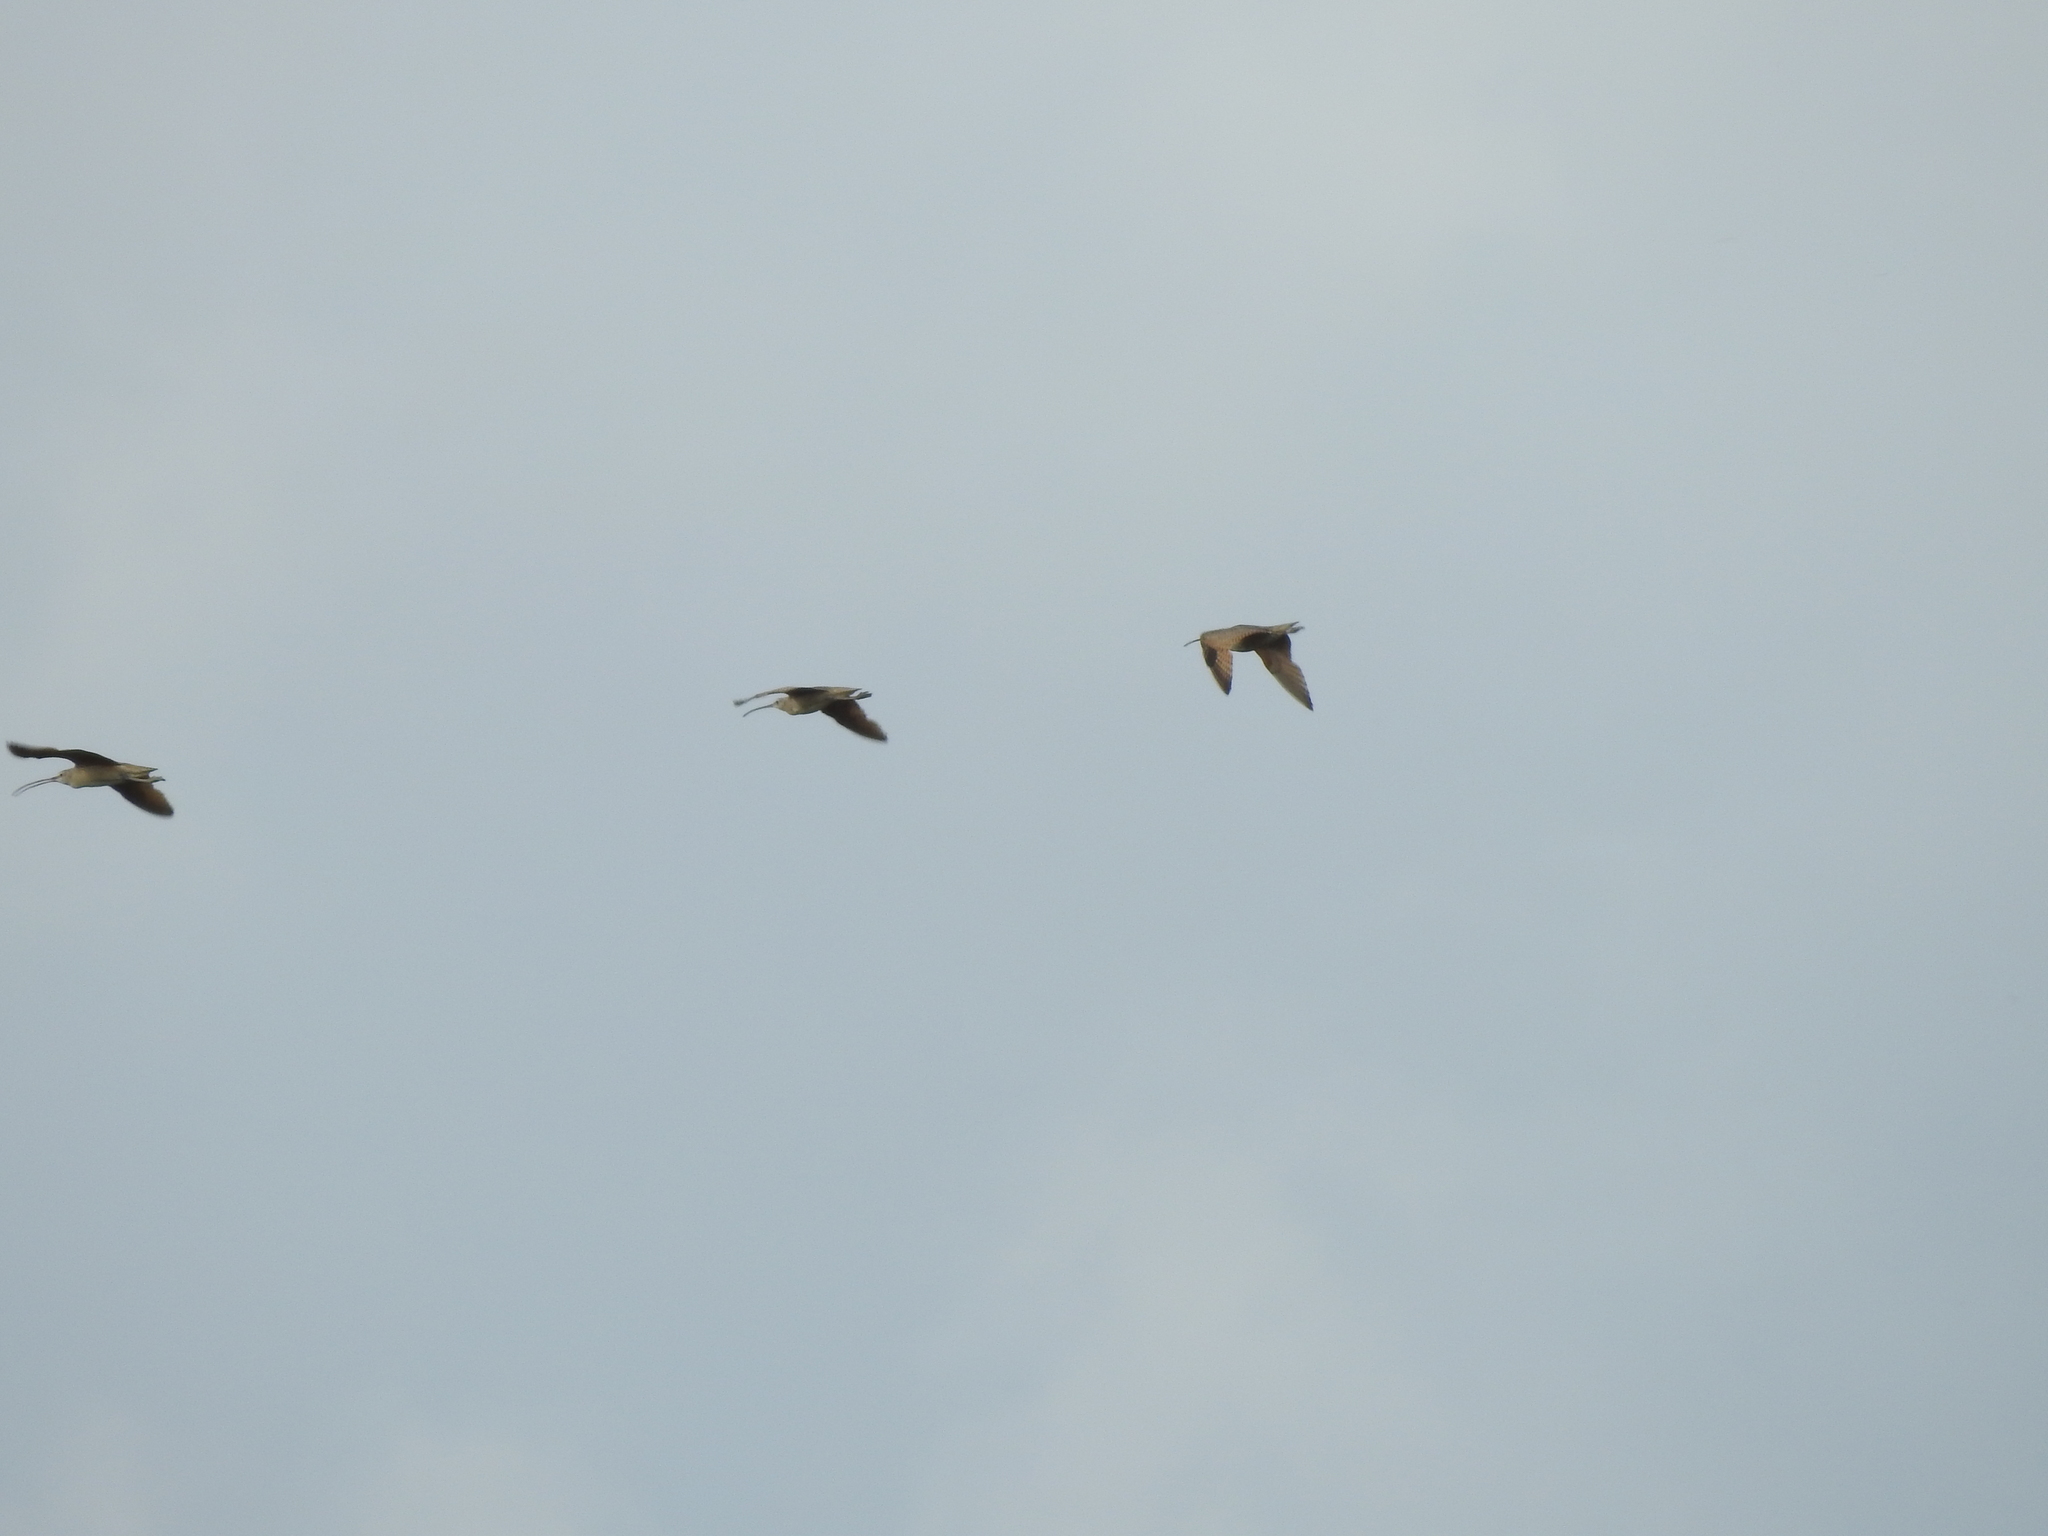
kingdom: Animalia
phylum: Chordata
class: Aves
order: Charadriiformes
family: Scolopacidae
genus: Numenius
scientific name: Numenius phaeopus
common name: Whimbrel
